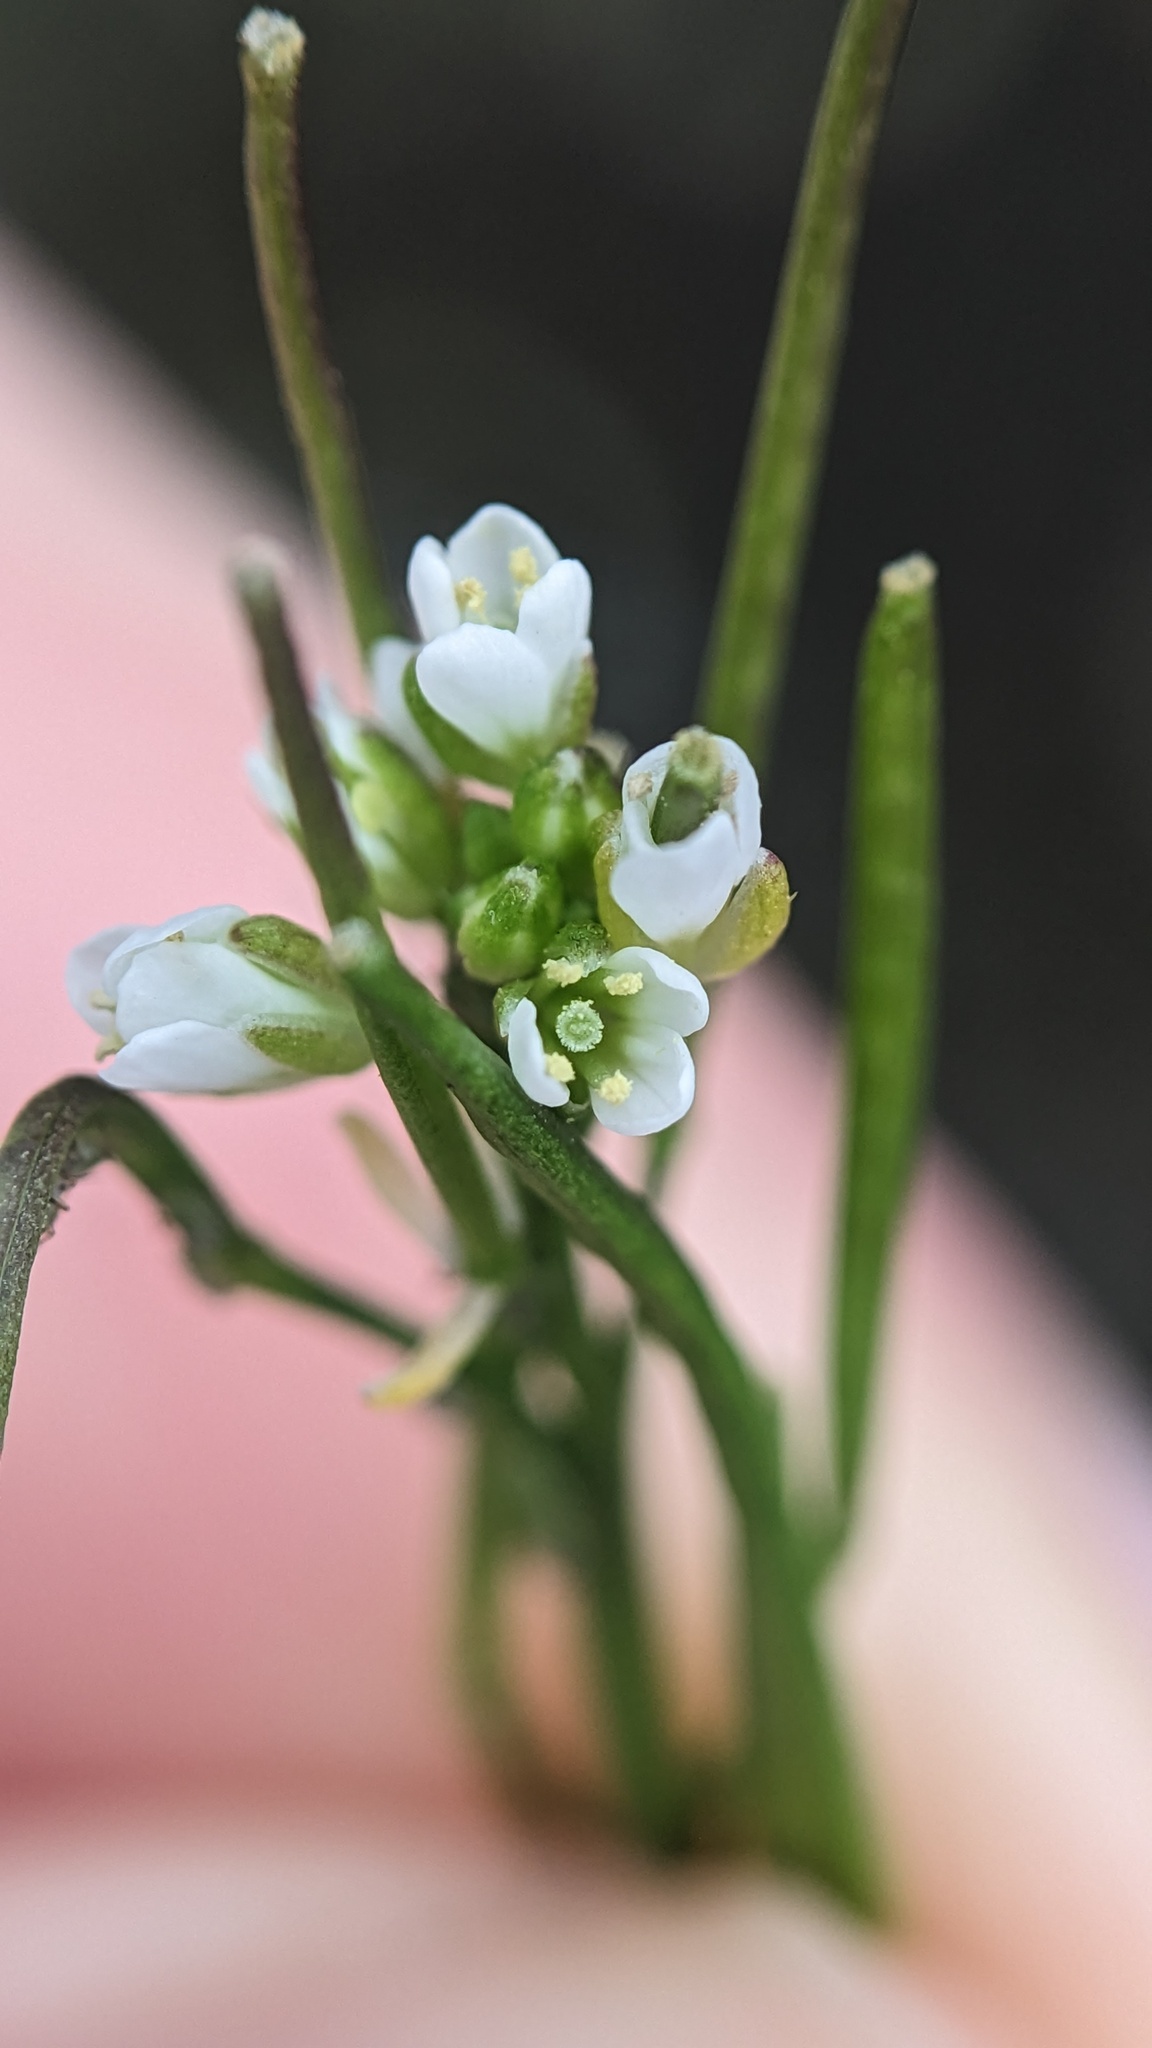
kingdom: Plantae
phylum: Tracheophyta
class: Magnoliopsida
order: Brassicales
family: Brassicaceae
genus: Cardamine
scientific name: Cardamine hirsuta
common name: Hairy bittercress
